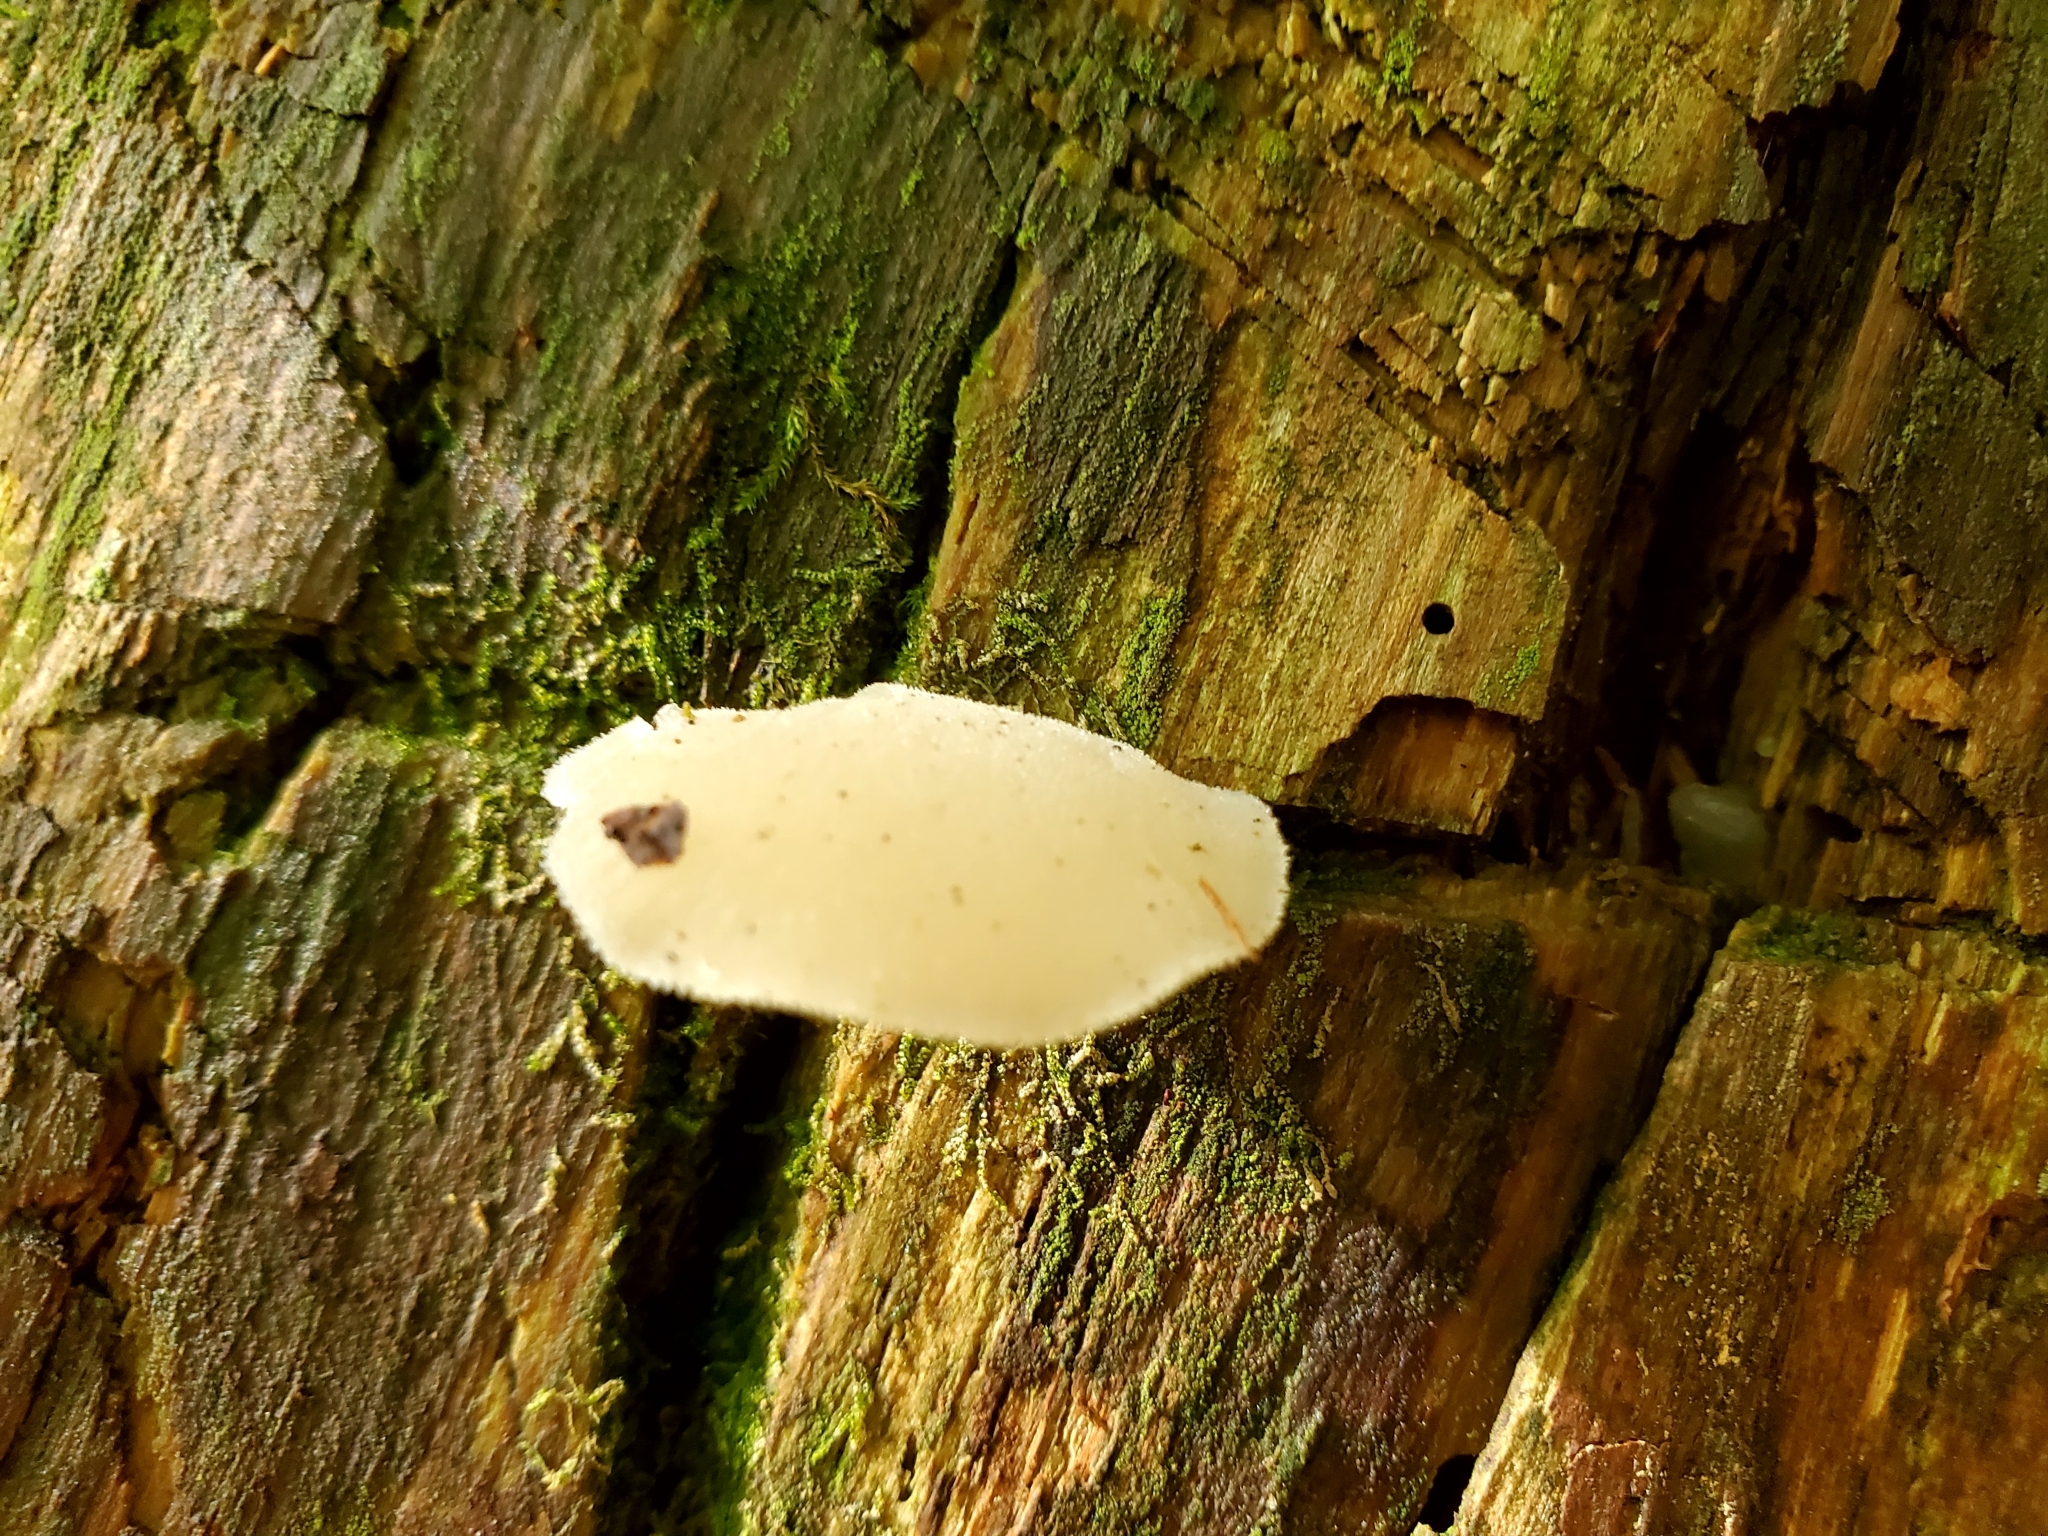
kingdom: Fungi
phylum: Basidiomycota
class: Agaricomycetes
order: Auriculariales
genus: Pseudohydnum
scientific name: Pseudohydnum gelatinosum
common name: Jelly tongue
